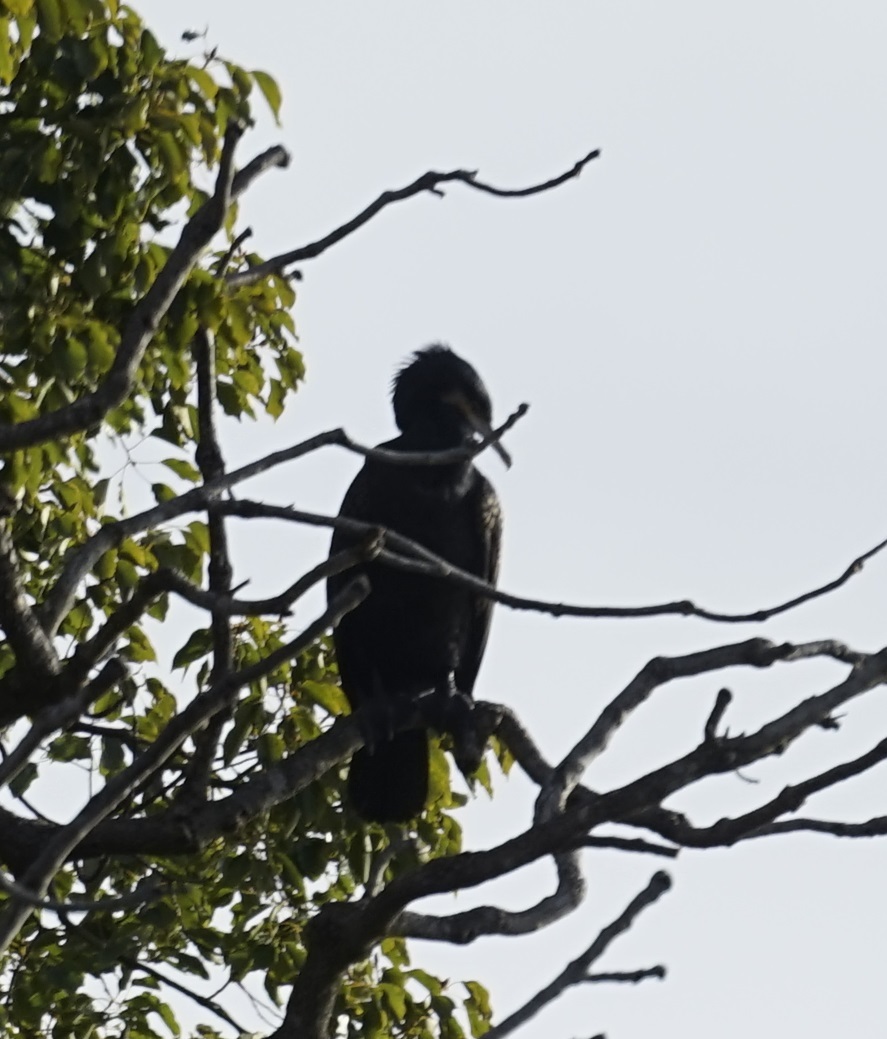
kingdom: Animalia
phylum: Chordata
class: Aves
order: Suliformes
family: Phalacrocoracidae
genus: Phalacrocorax
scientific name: Phalacrocorax carbo
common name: Great cormorant
